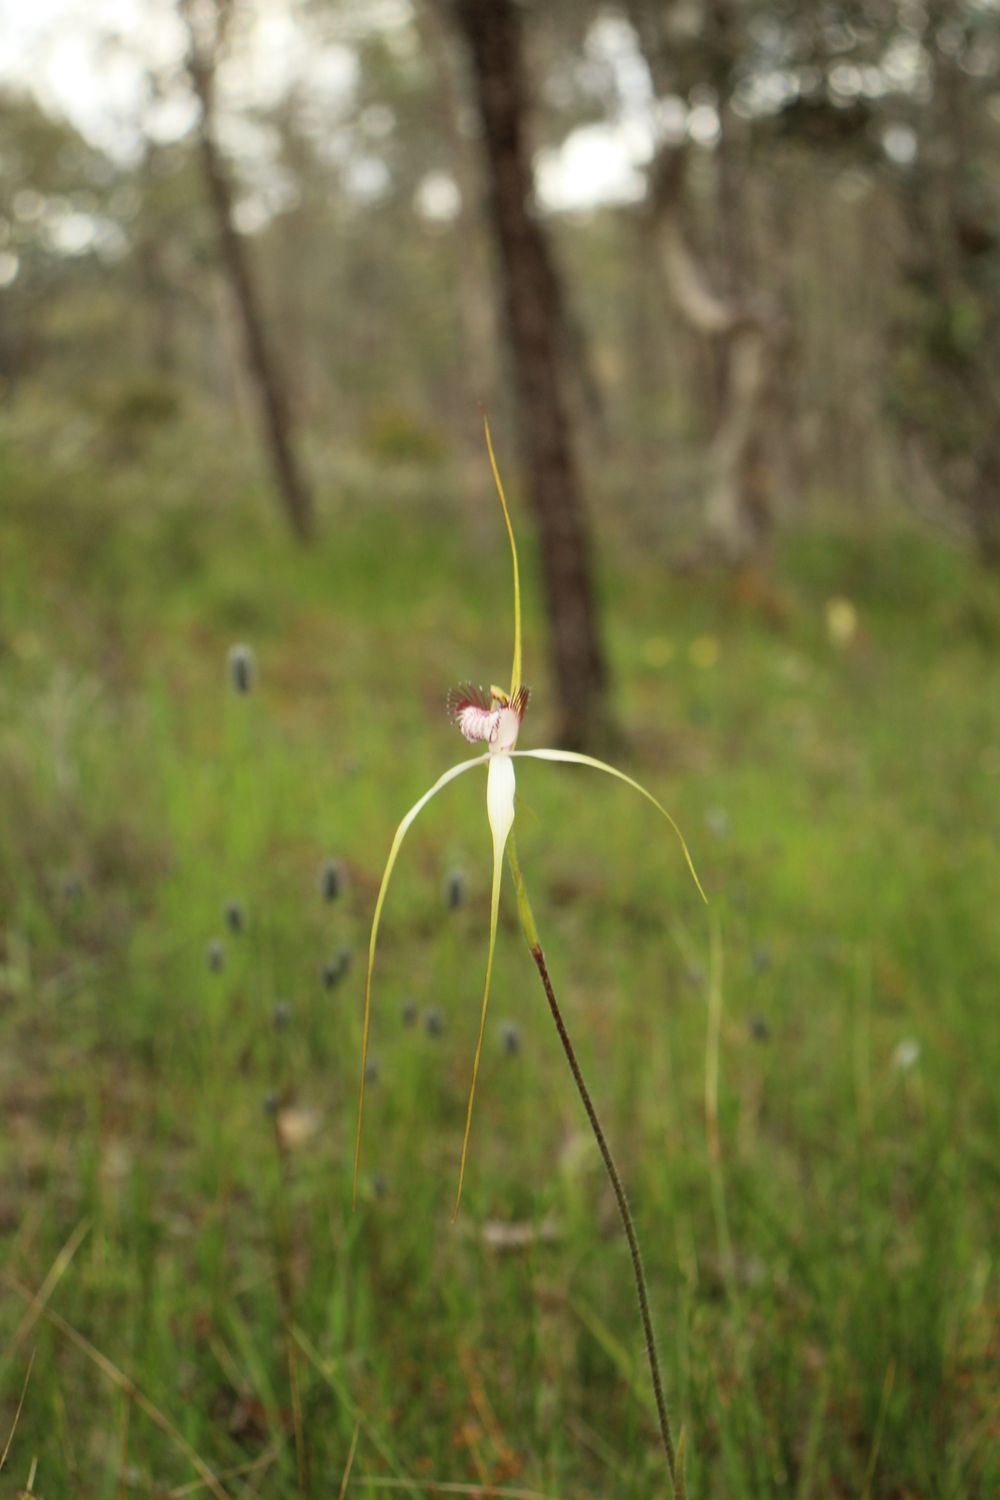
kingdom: Plantae
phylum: Tracheophyta
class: Liliopsida
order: Asparagales
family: Orchidaceae
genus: Caladenia
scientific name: Caladenia longicauda
